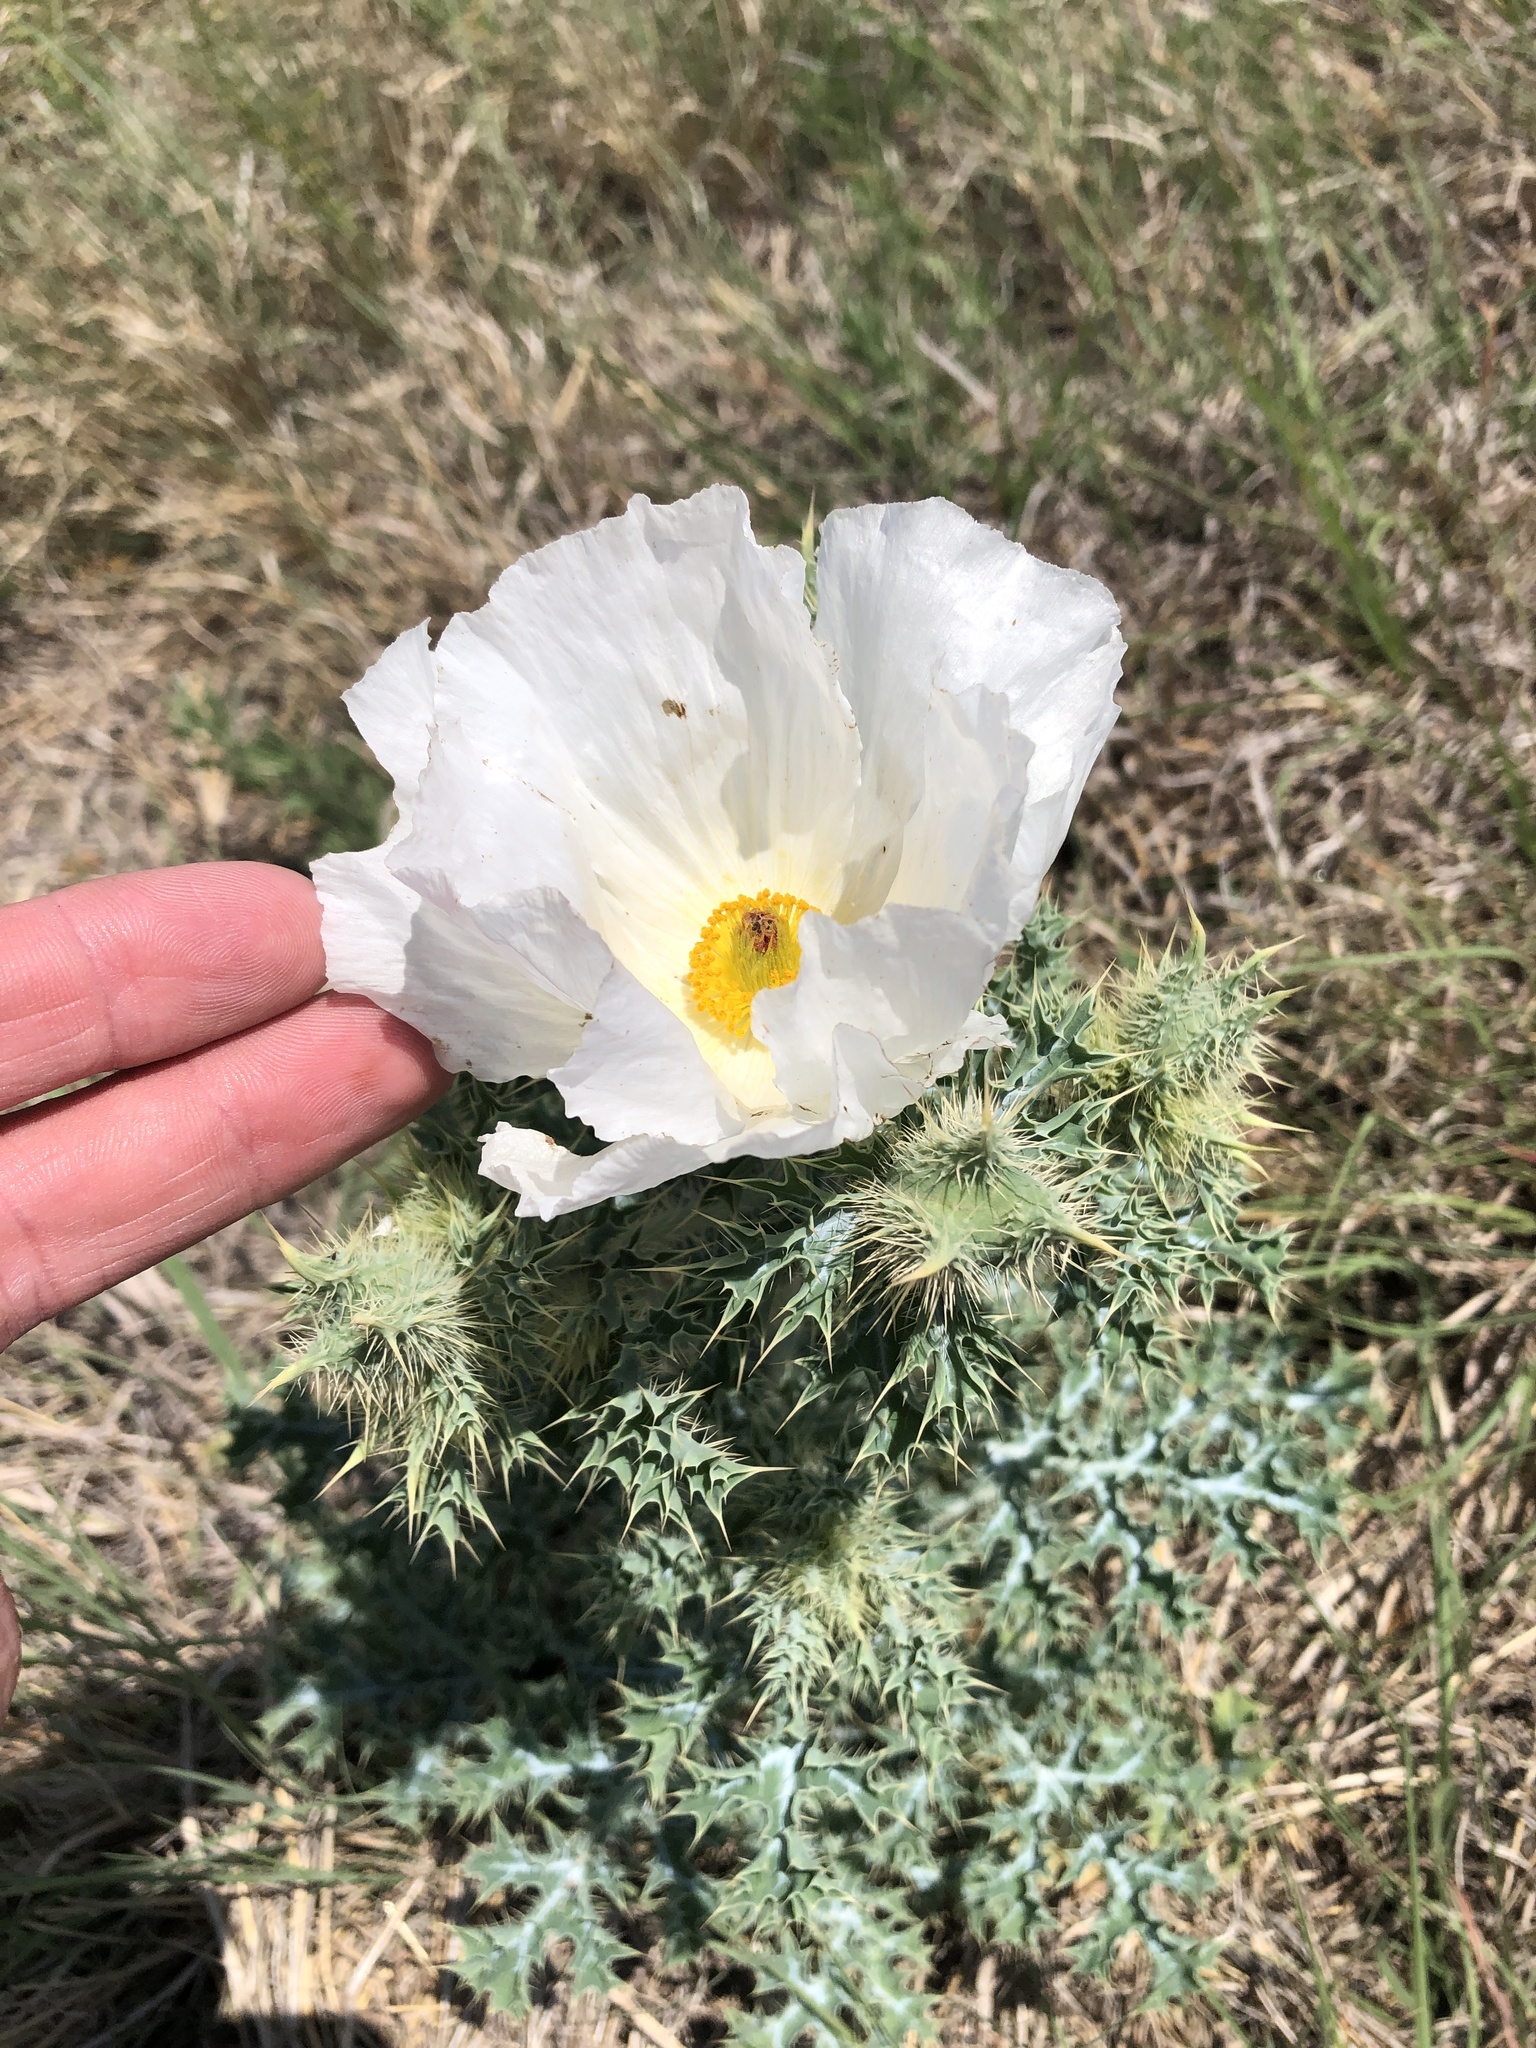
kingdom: Plantae
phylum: Tracheophyta
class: Magnoliopsida
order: Ranunculales
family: Papaveraceae
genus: Argemone
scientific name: Argemone albiflora
